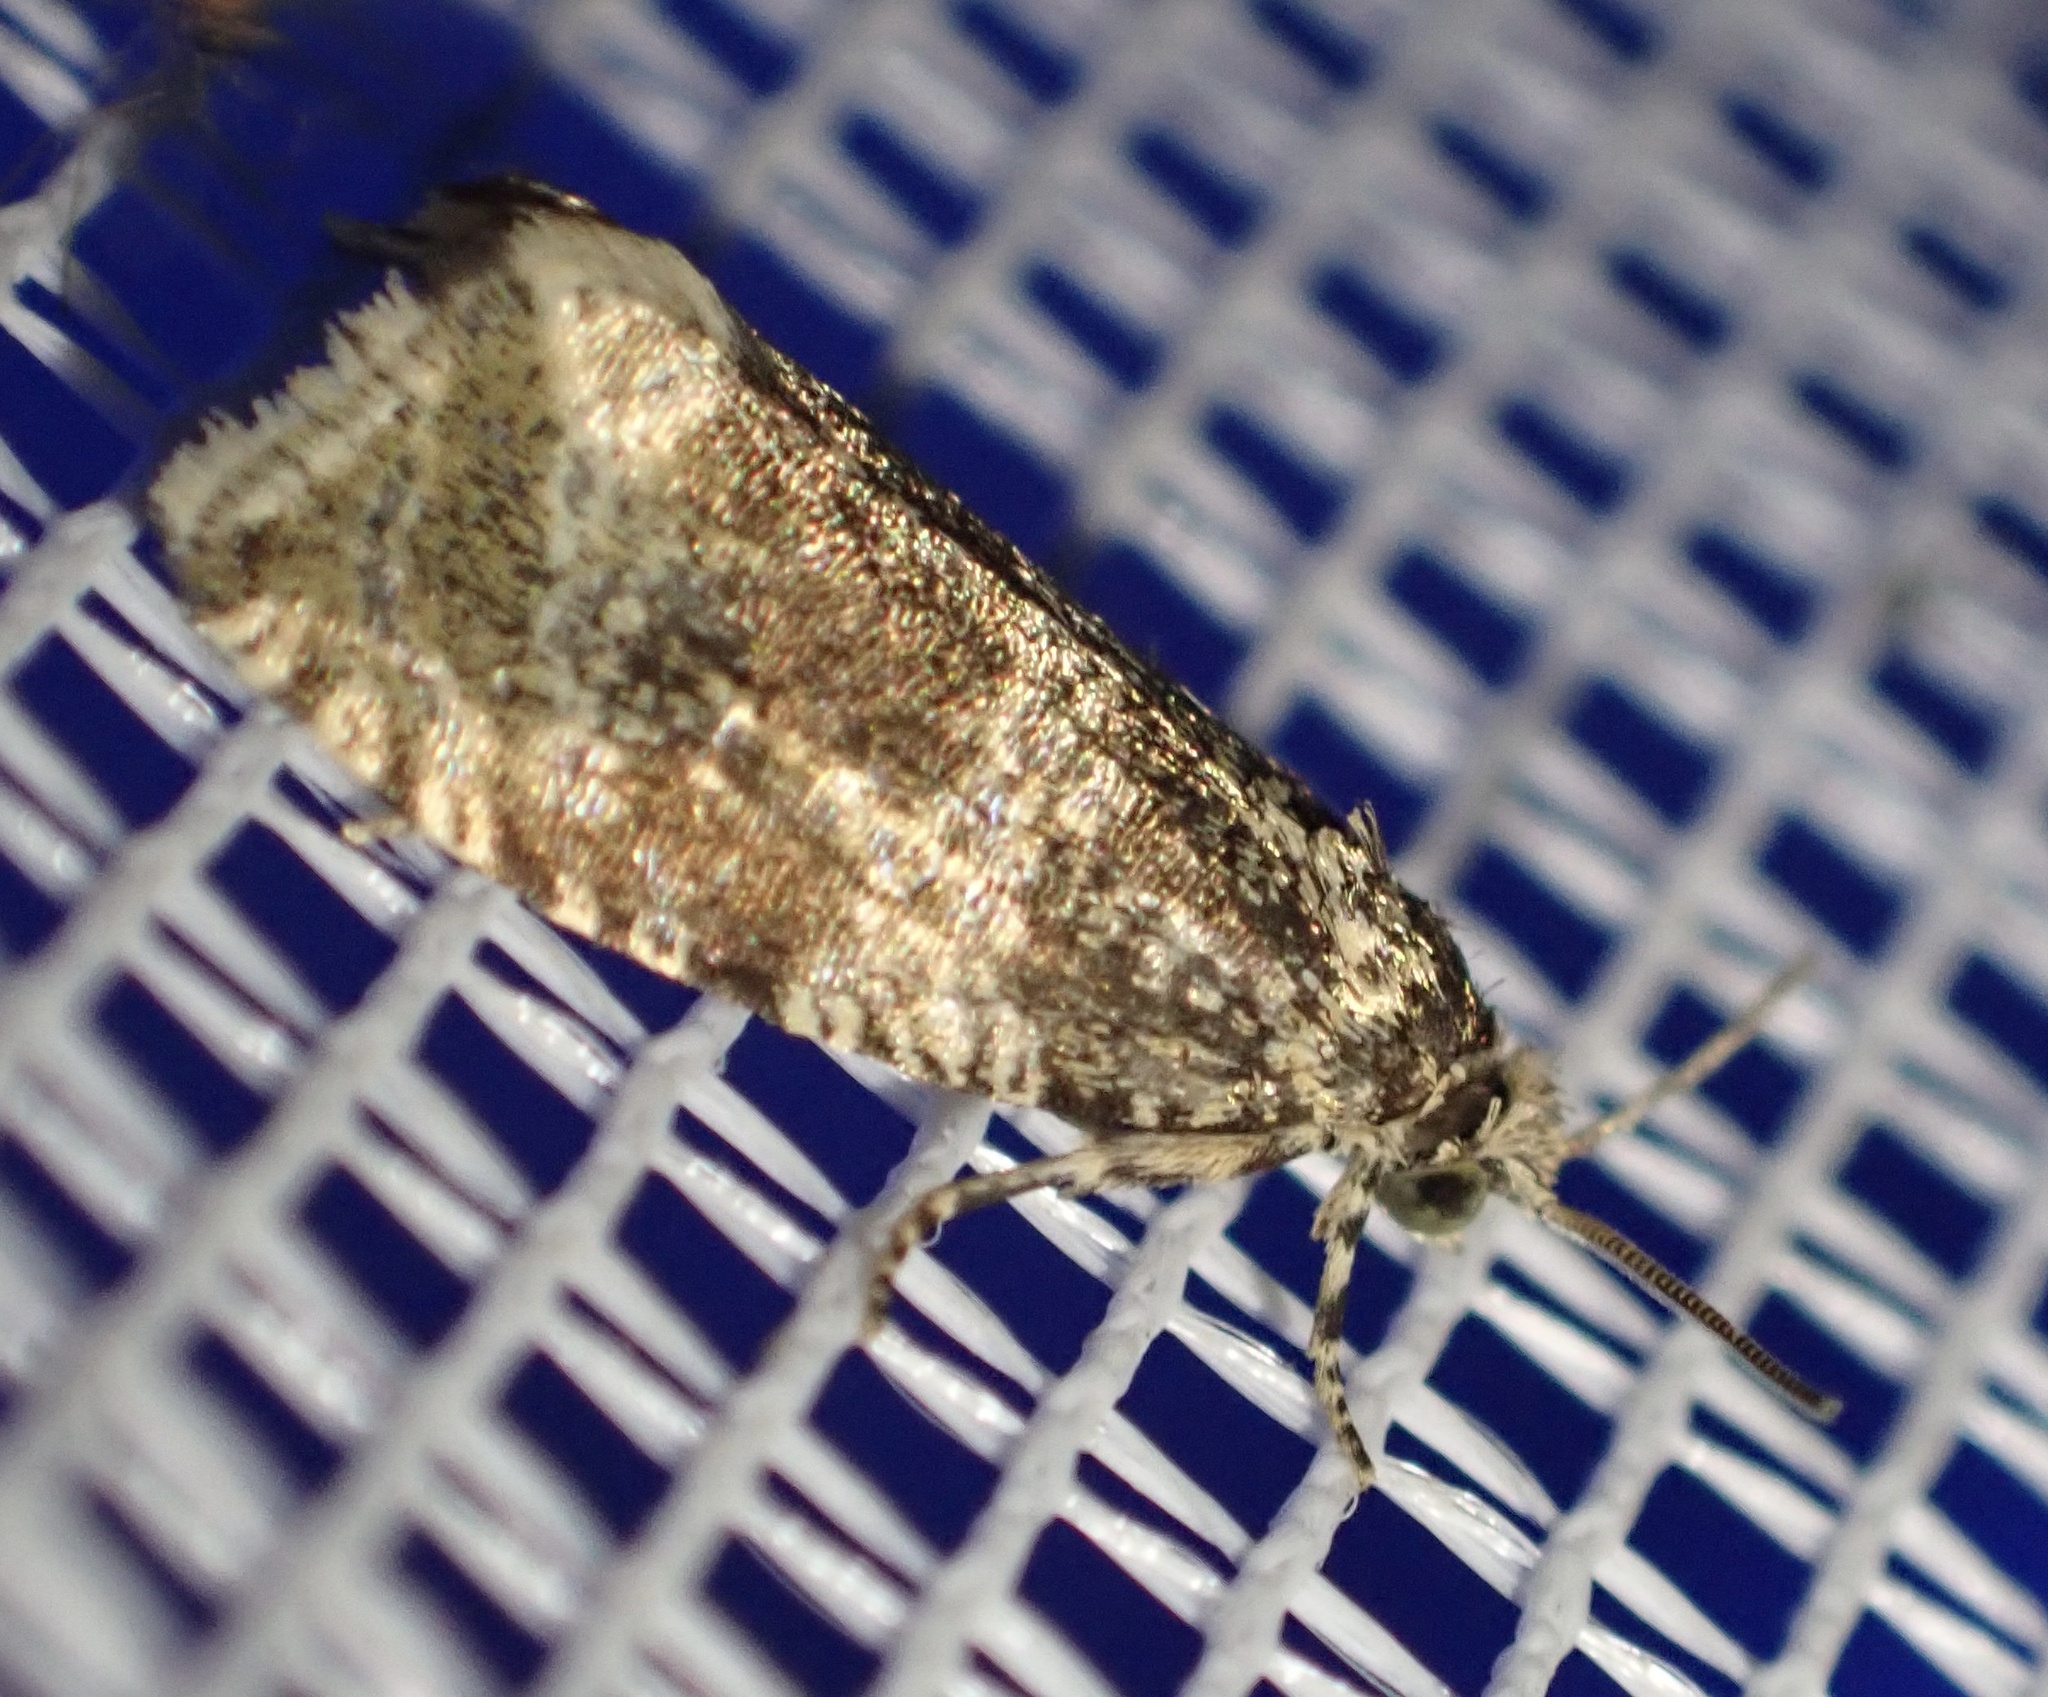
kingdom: Animalia
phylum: Arthropoda
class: Insecta
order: Lepidoptera
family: Tortricidae
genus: Syricoris
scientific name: Syricoris lacunana
